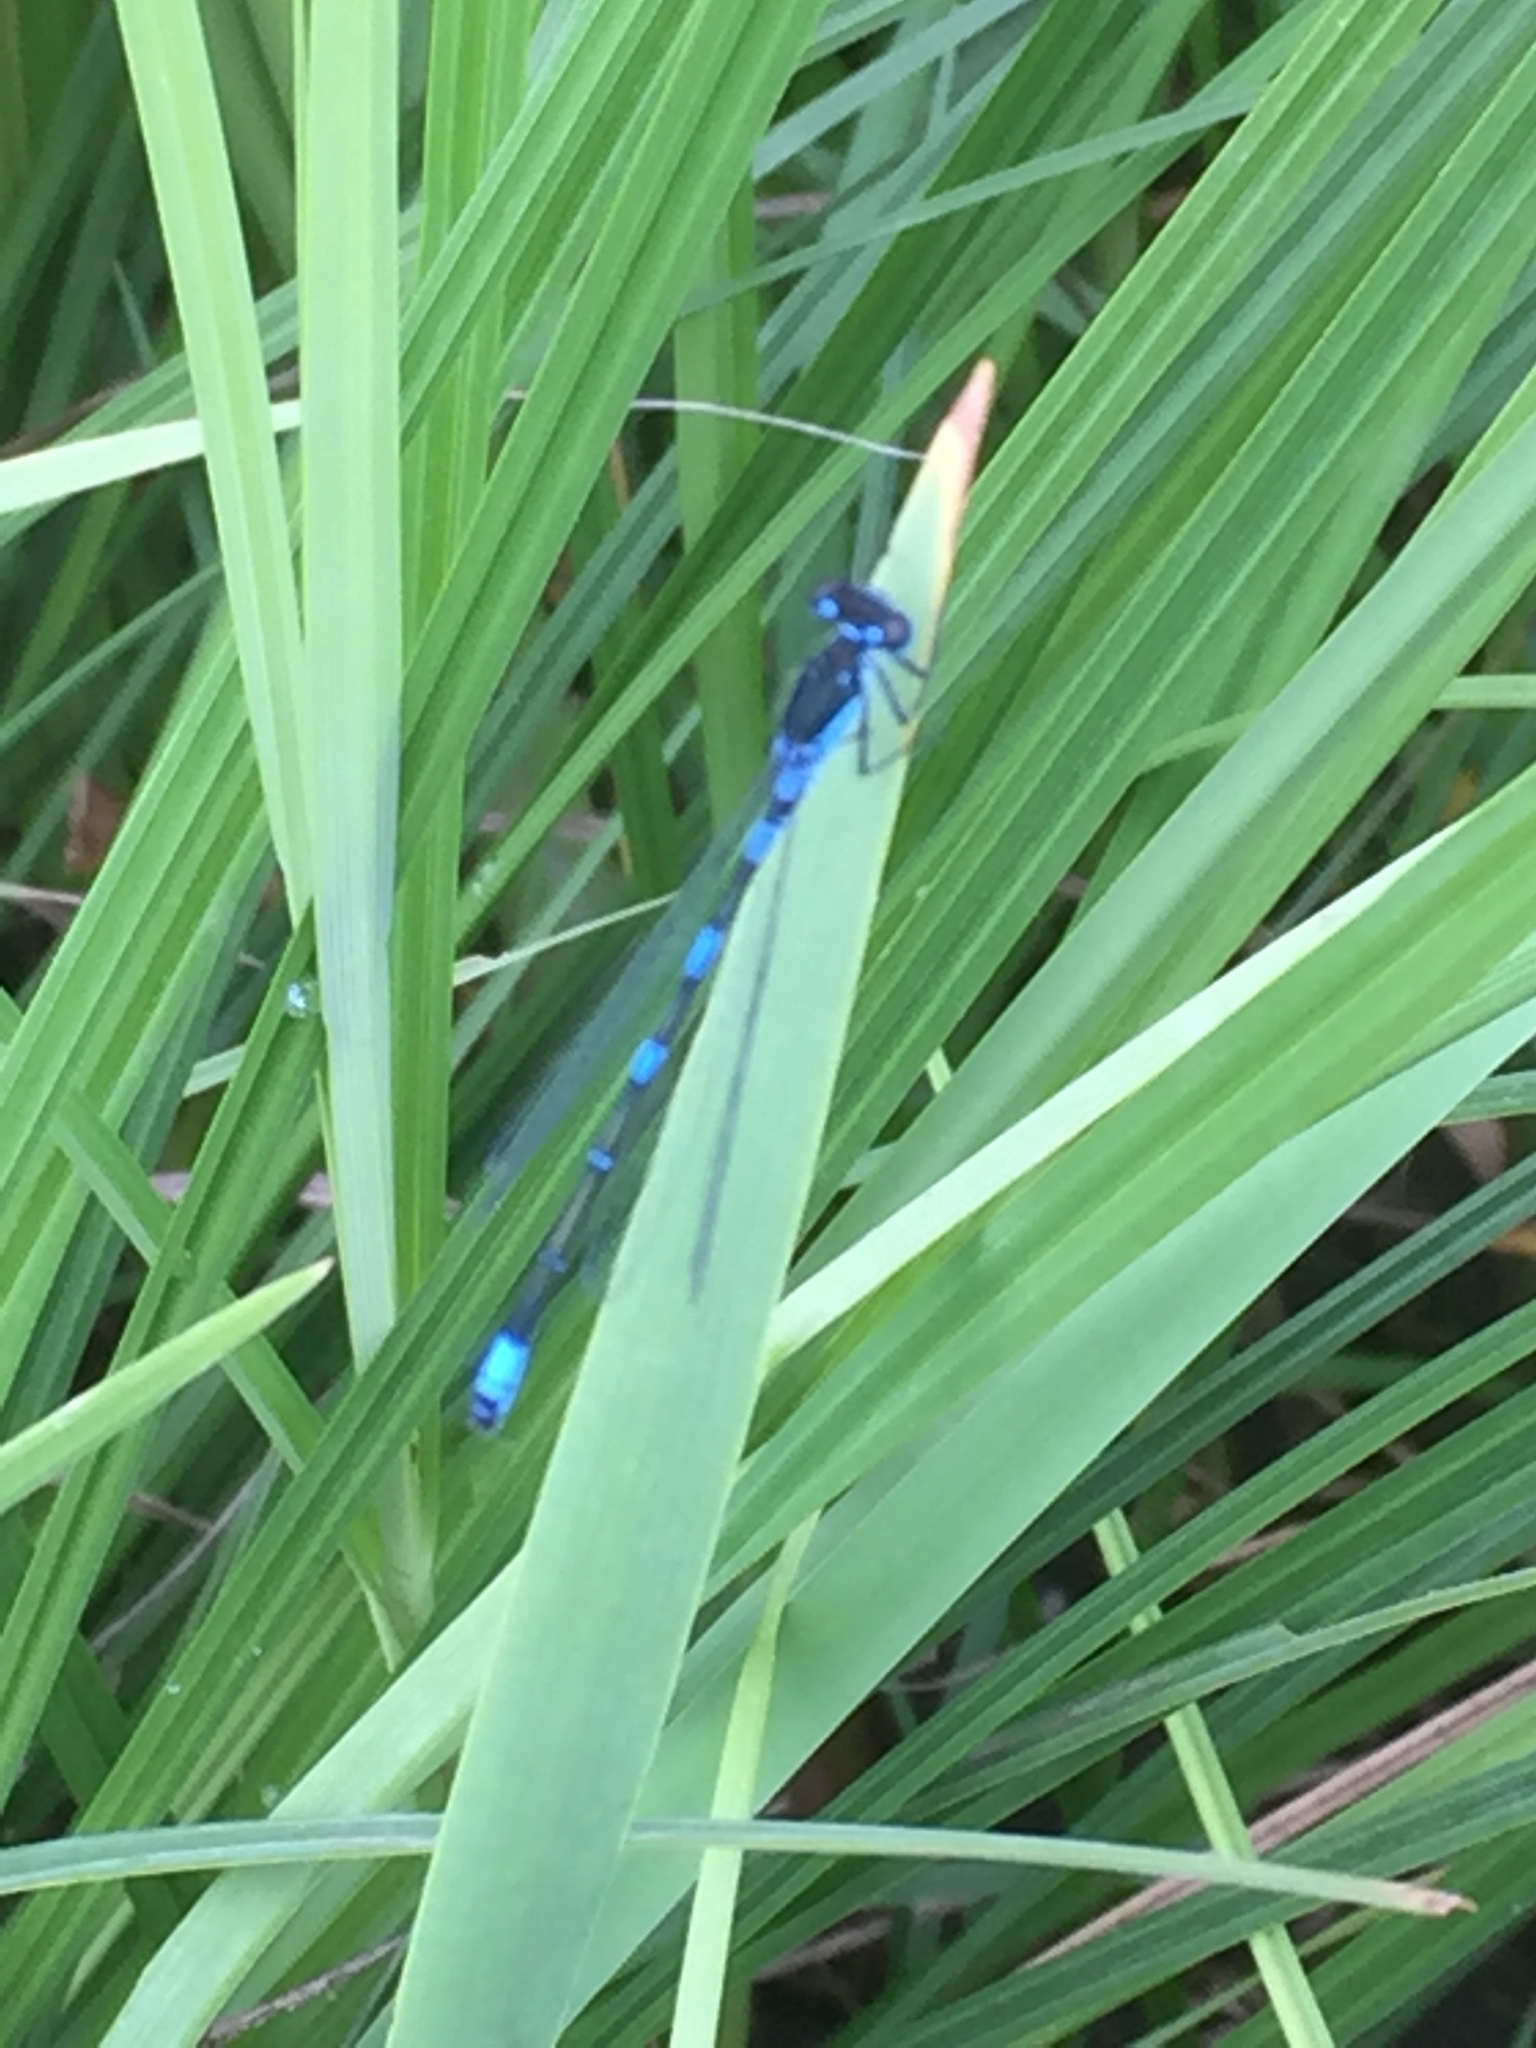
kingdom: Animalia
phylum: Arthropoda
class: Insecta
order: Odonata
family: Coenagrionidae
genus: Coenagrion
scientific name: Coenagrion pulchellum
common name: Variable bluet
